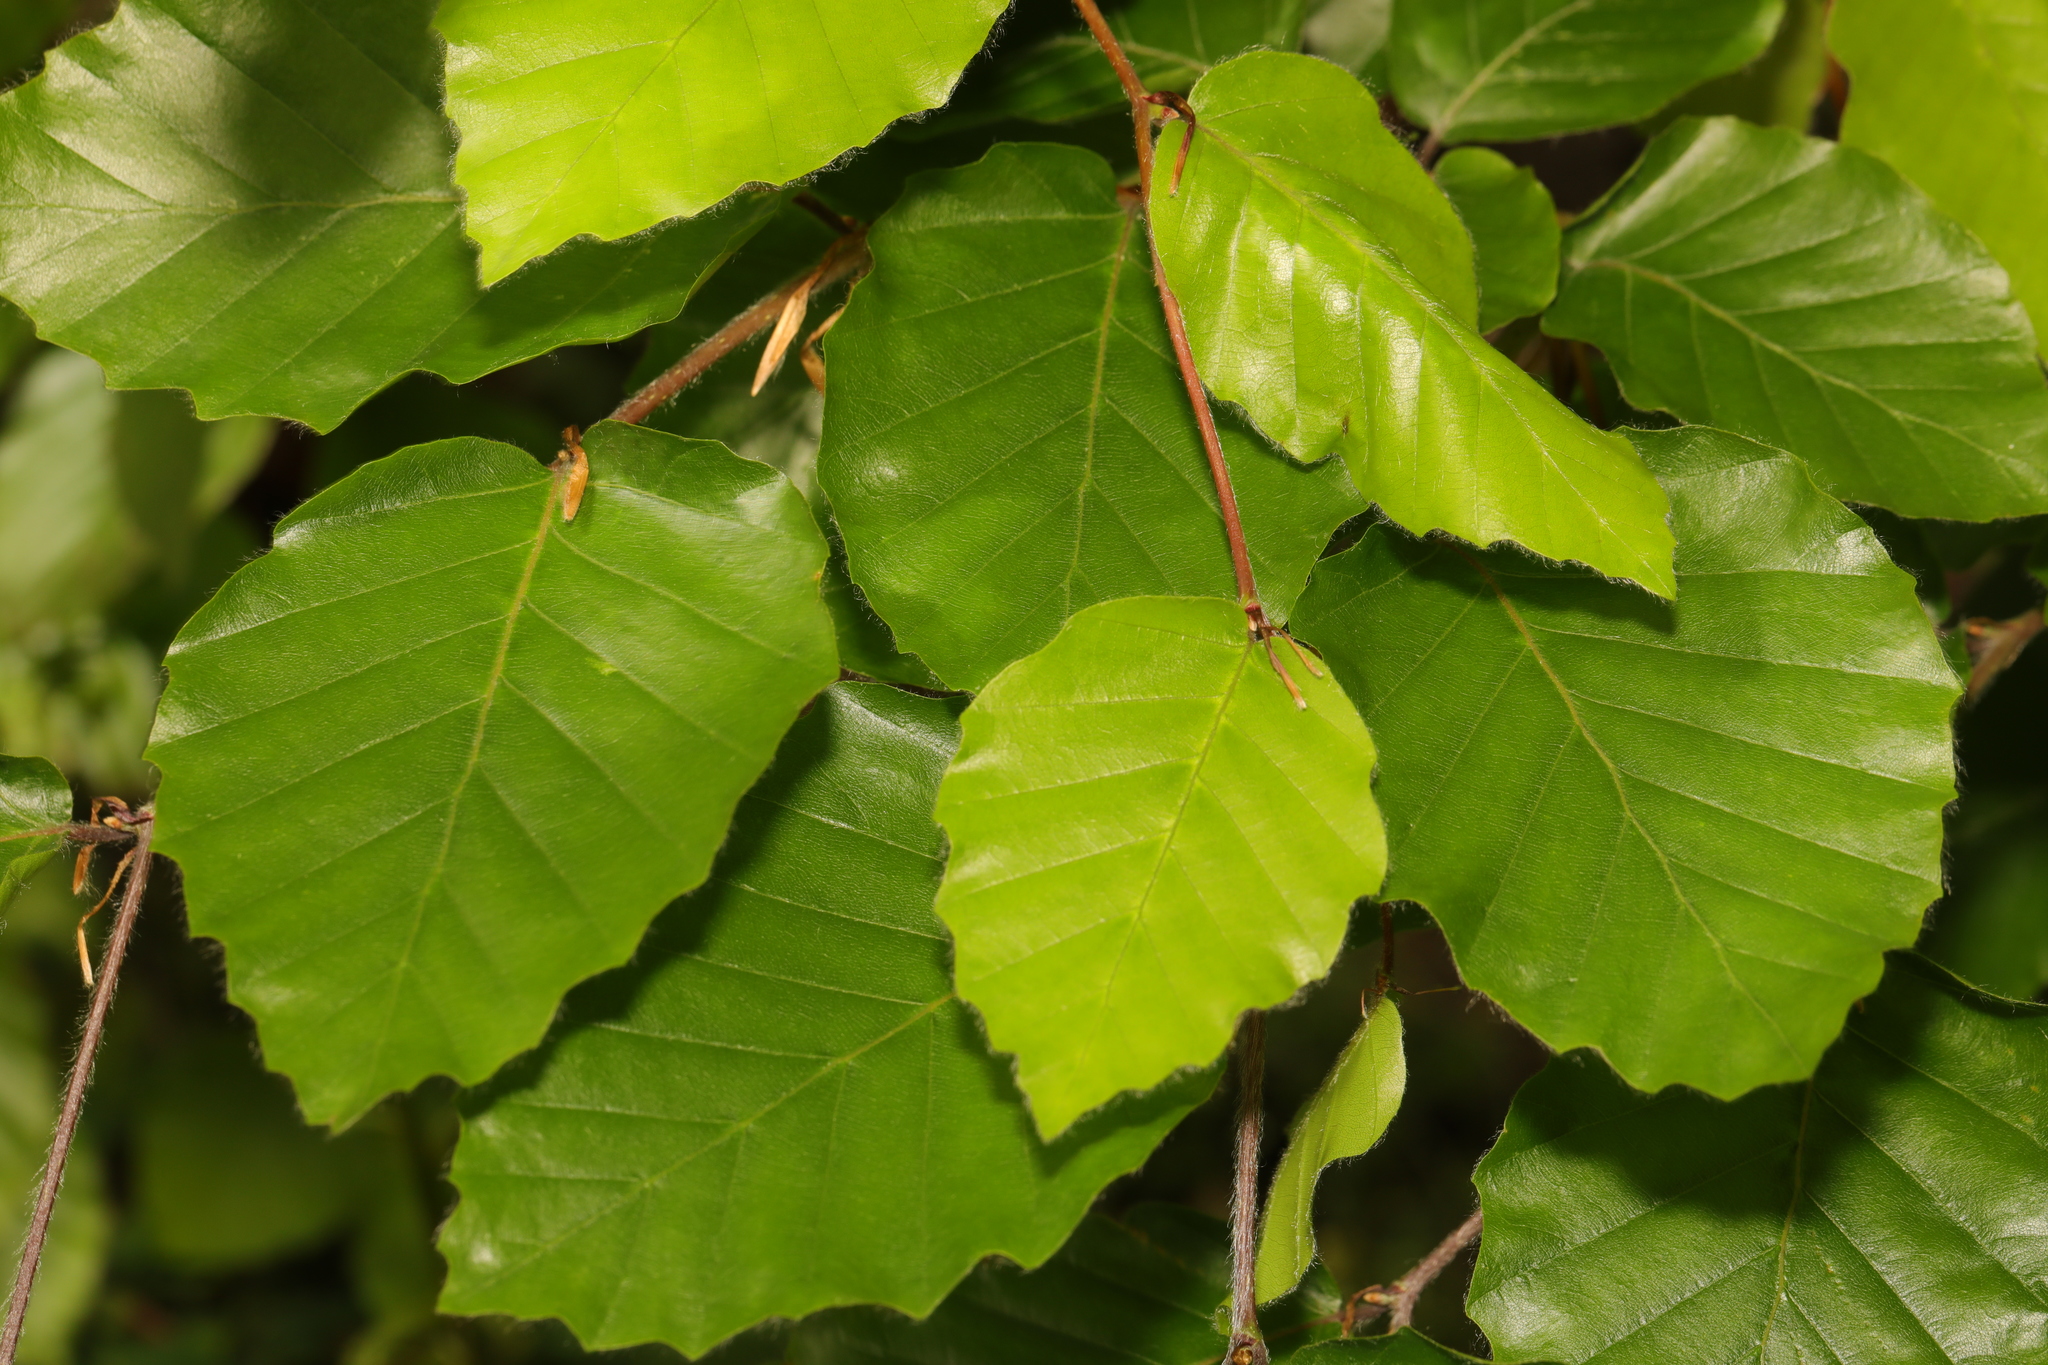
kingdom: Plantae
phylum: Tracheophyta
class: Magnoliopsida
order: Fagales
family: Fagaceae
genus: Fagus
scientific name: Fagus sylvatica
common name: Beech
